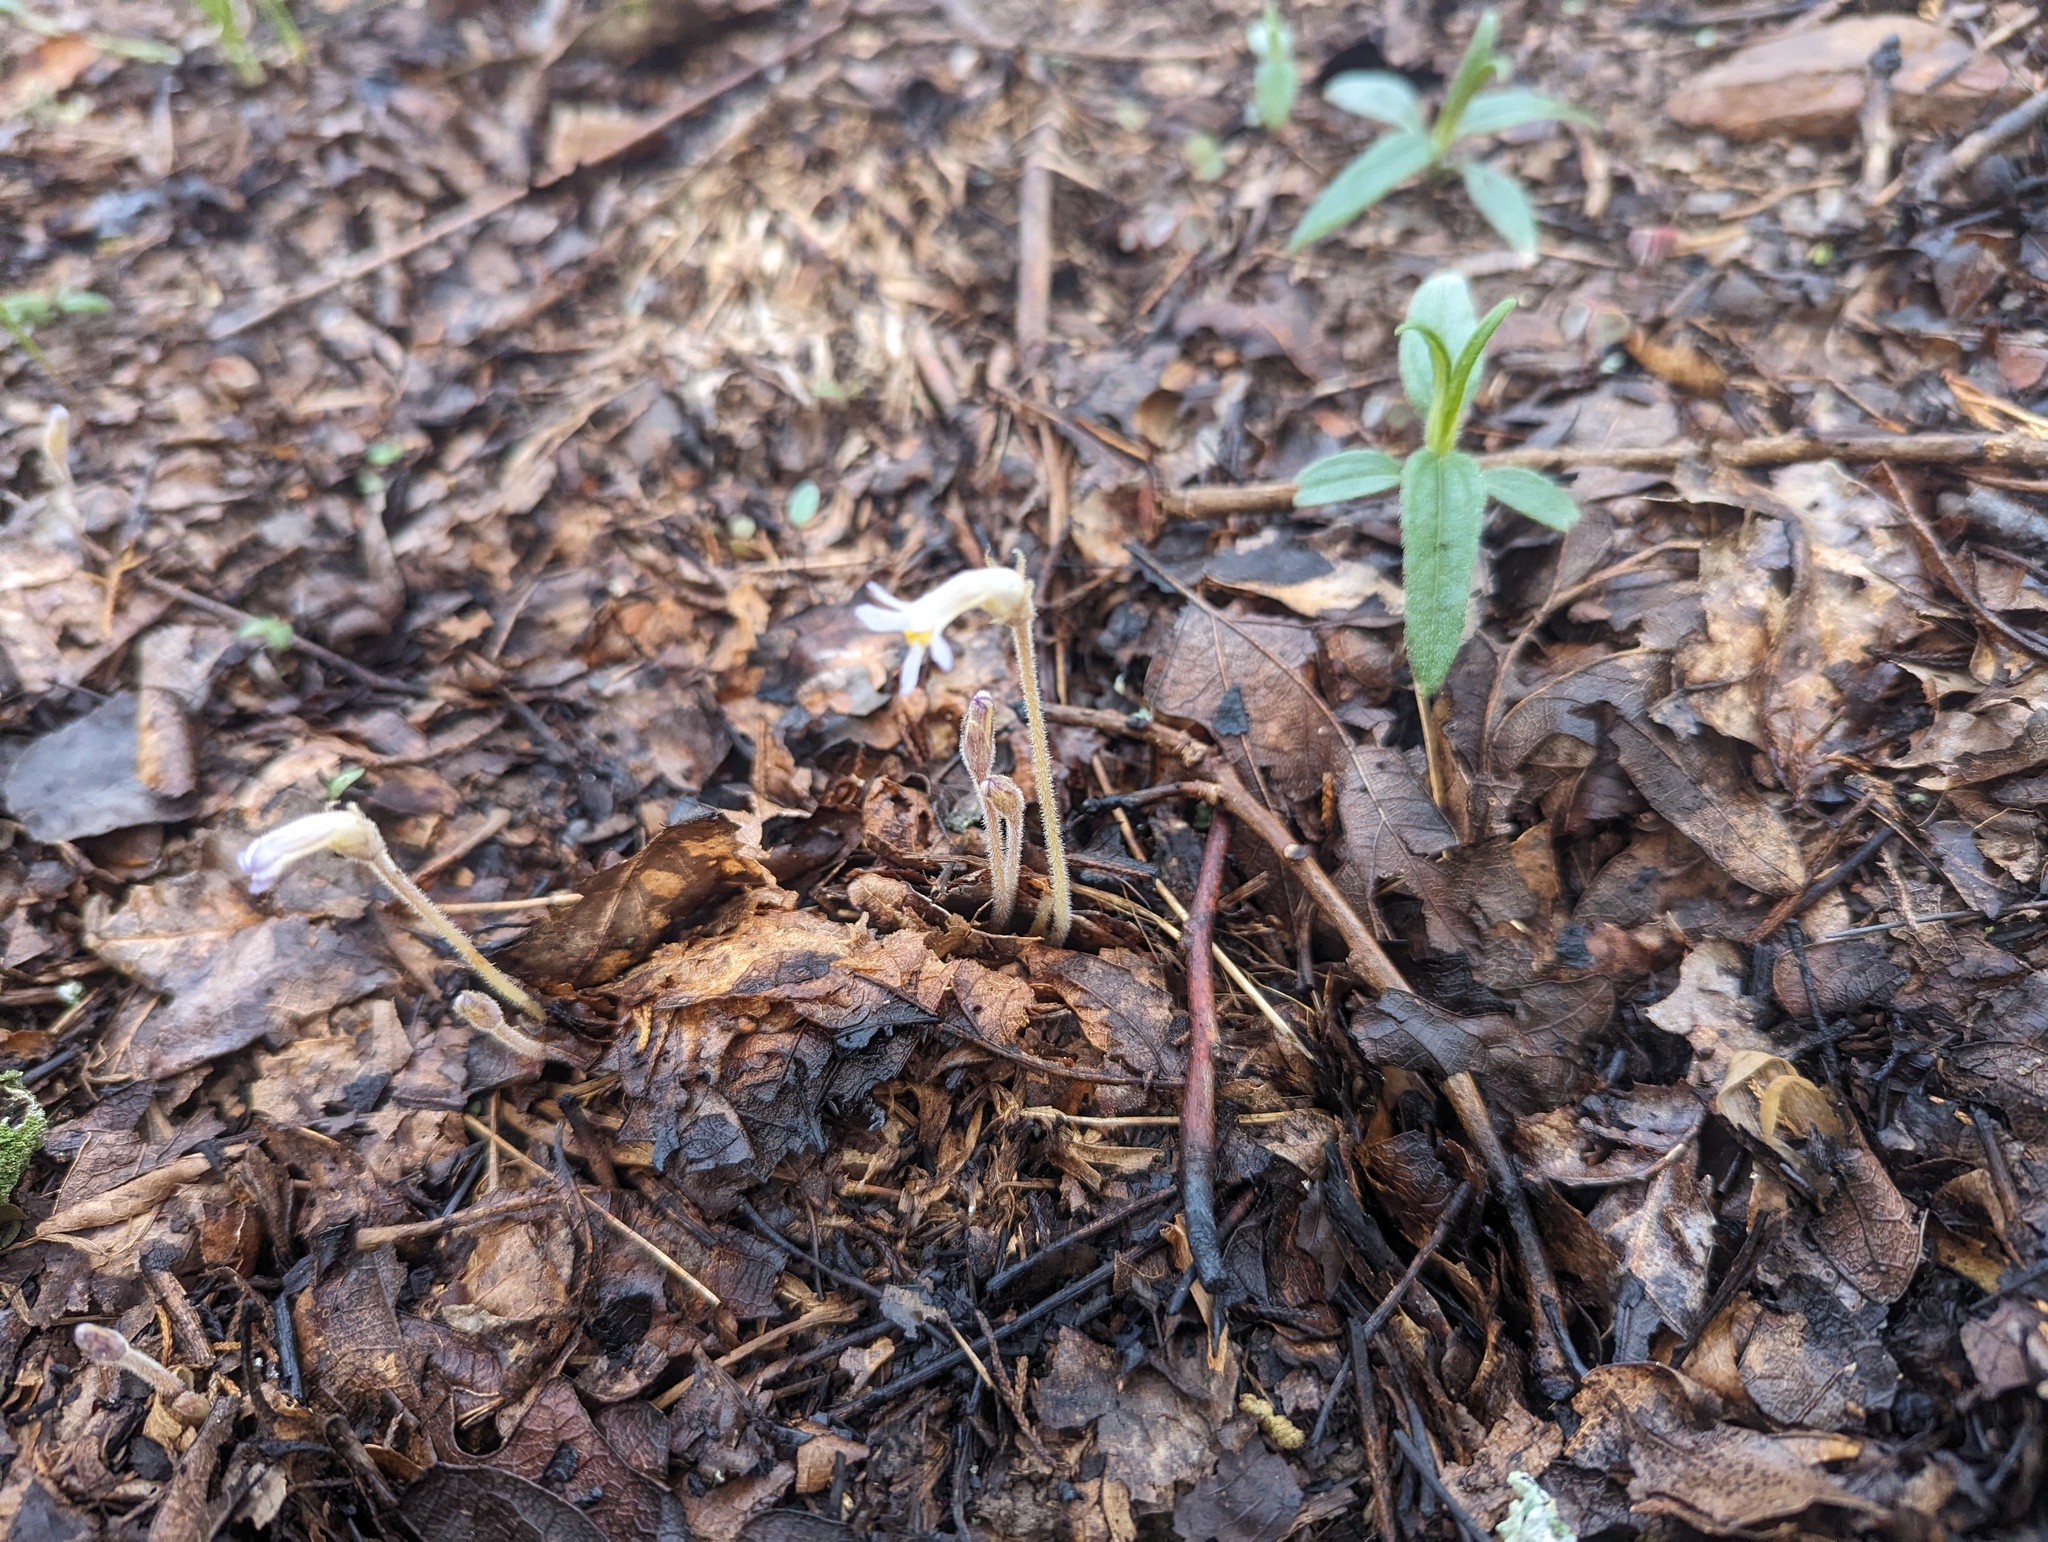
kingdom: Plantae
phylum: Tracheophyta
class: Magnoliopsida
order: Lamiales
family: Orobanchaceae
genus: Aphyllon
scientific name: Aphyllon uniflorum
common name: One-flowered broomrape
